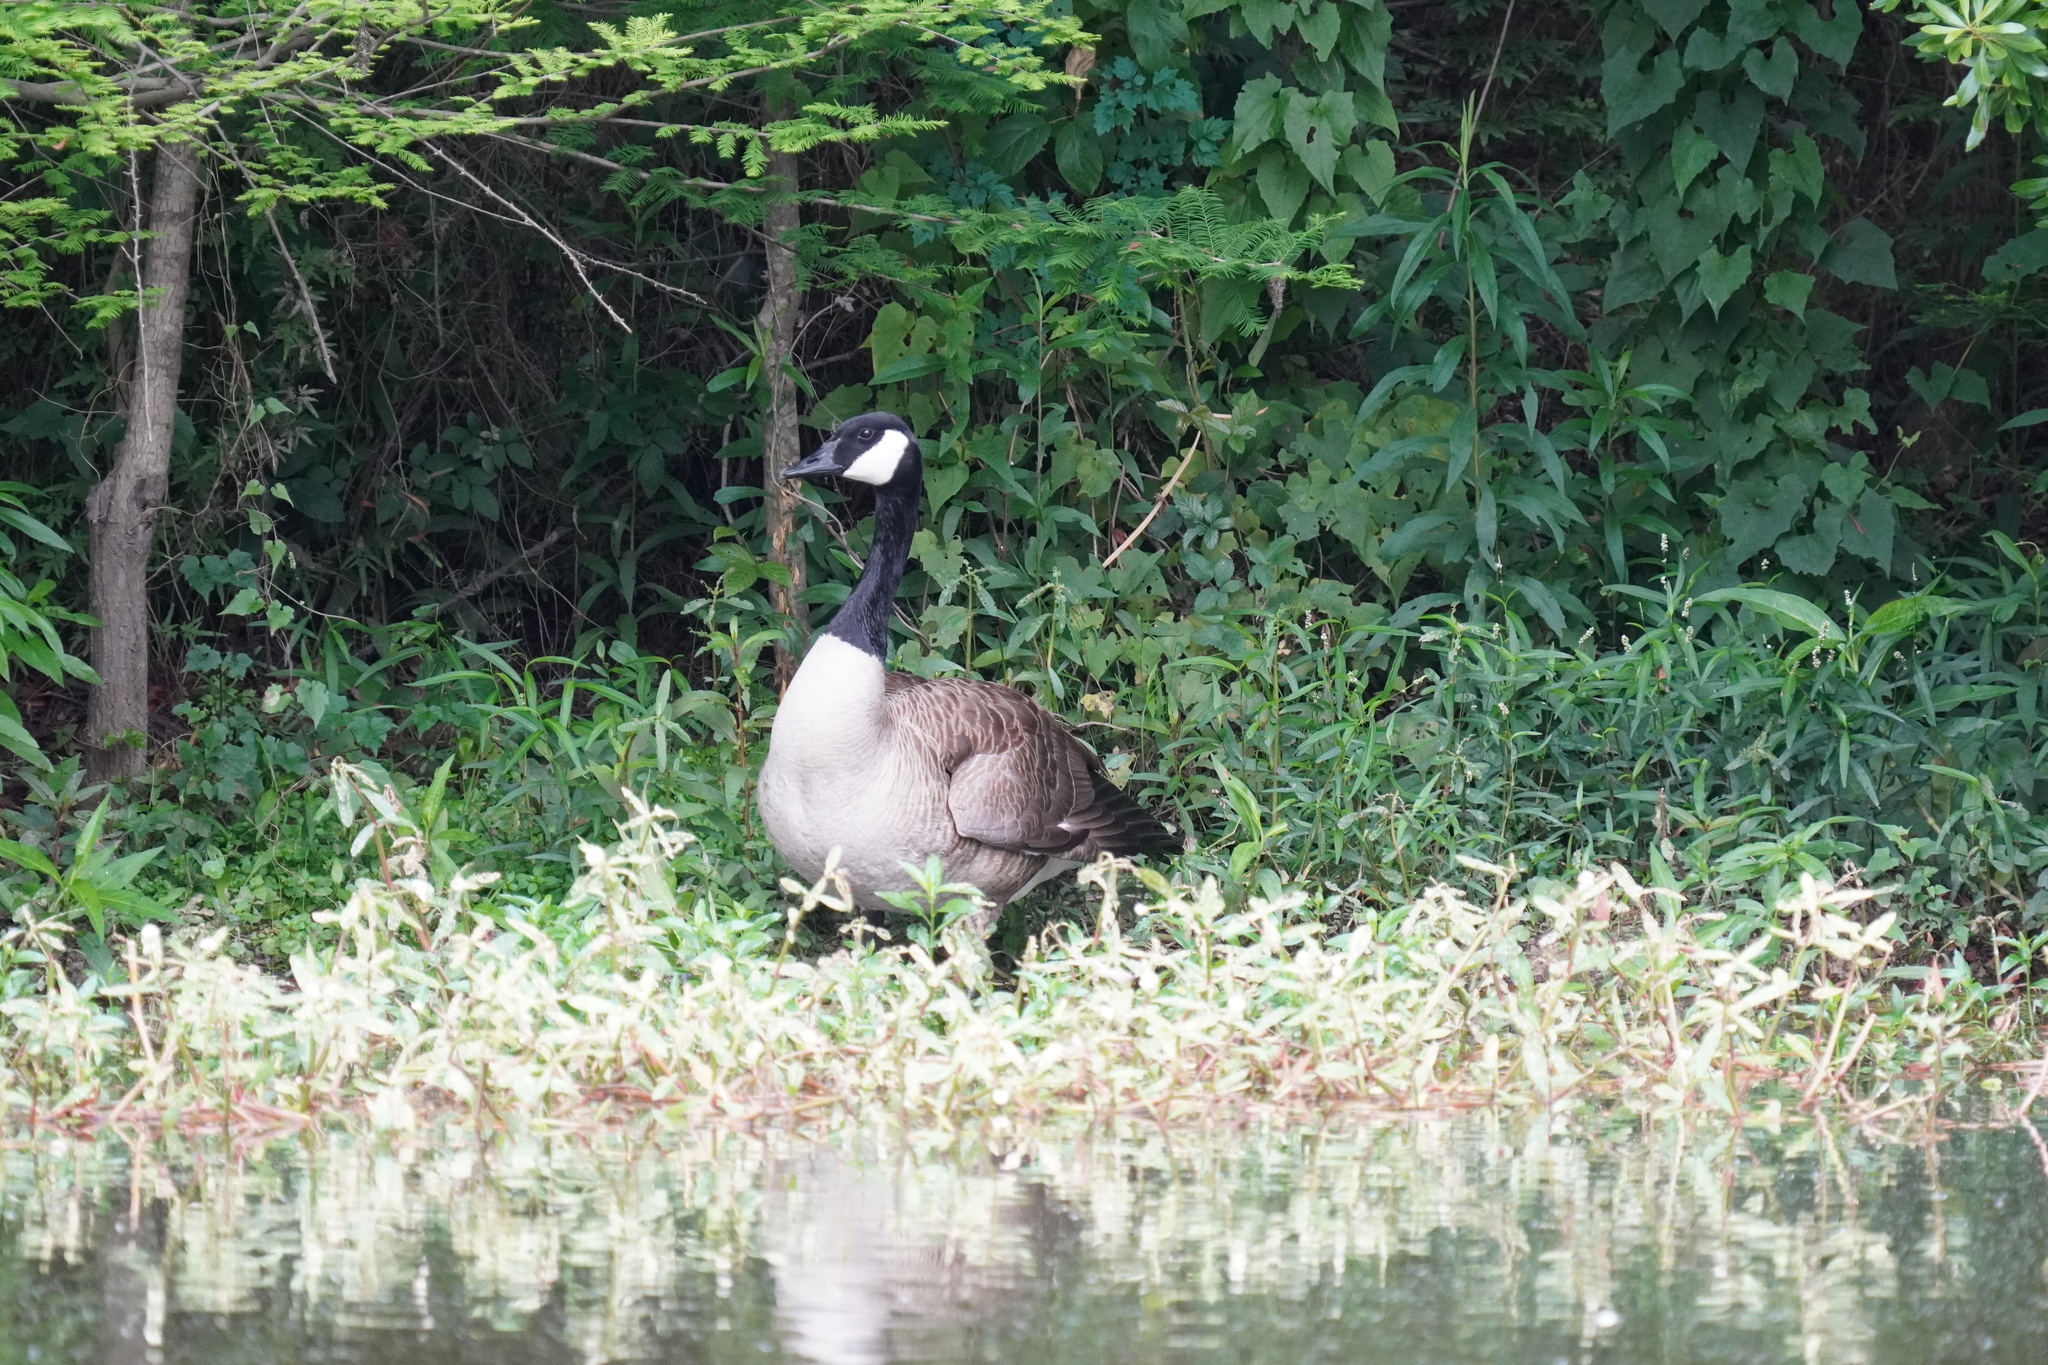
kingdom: Animalia
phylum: Chordata
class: Aves
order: Anseriformes
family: Anatidae
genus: Branta
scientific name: Branta canadensis
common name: Canada goose
